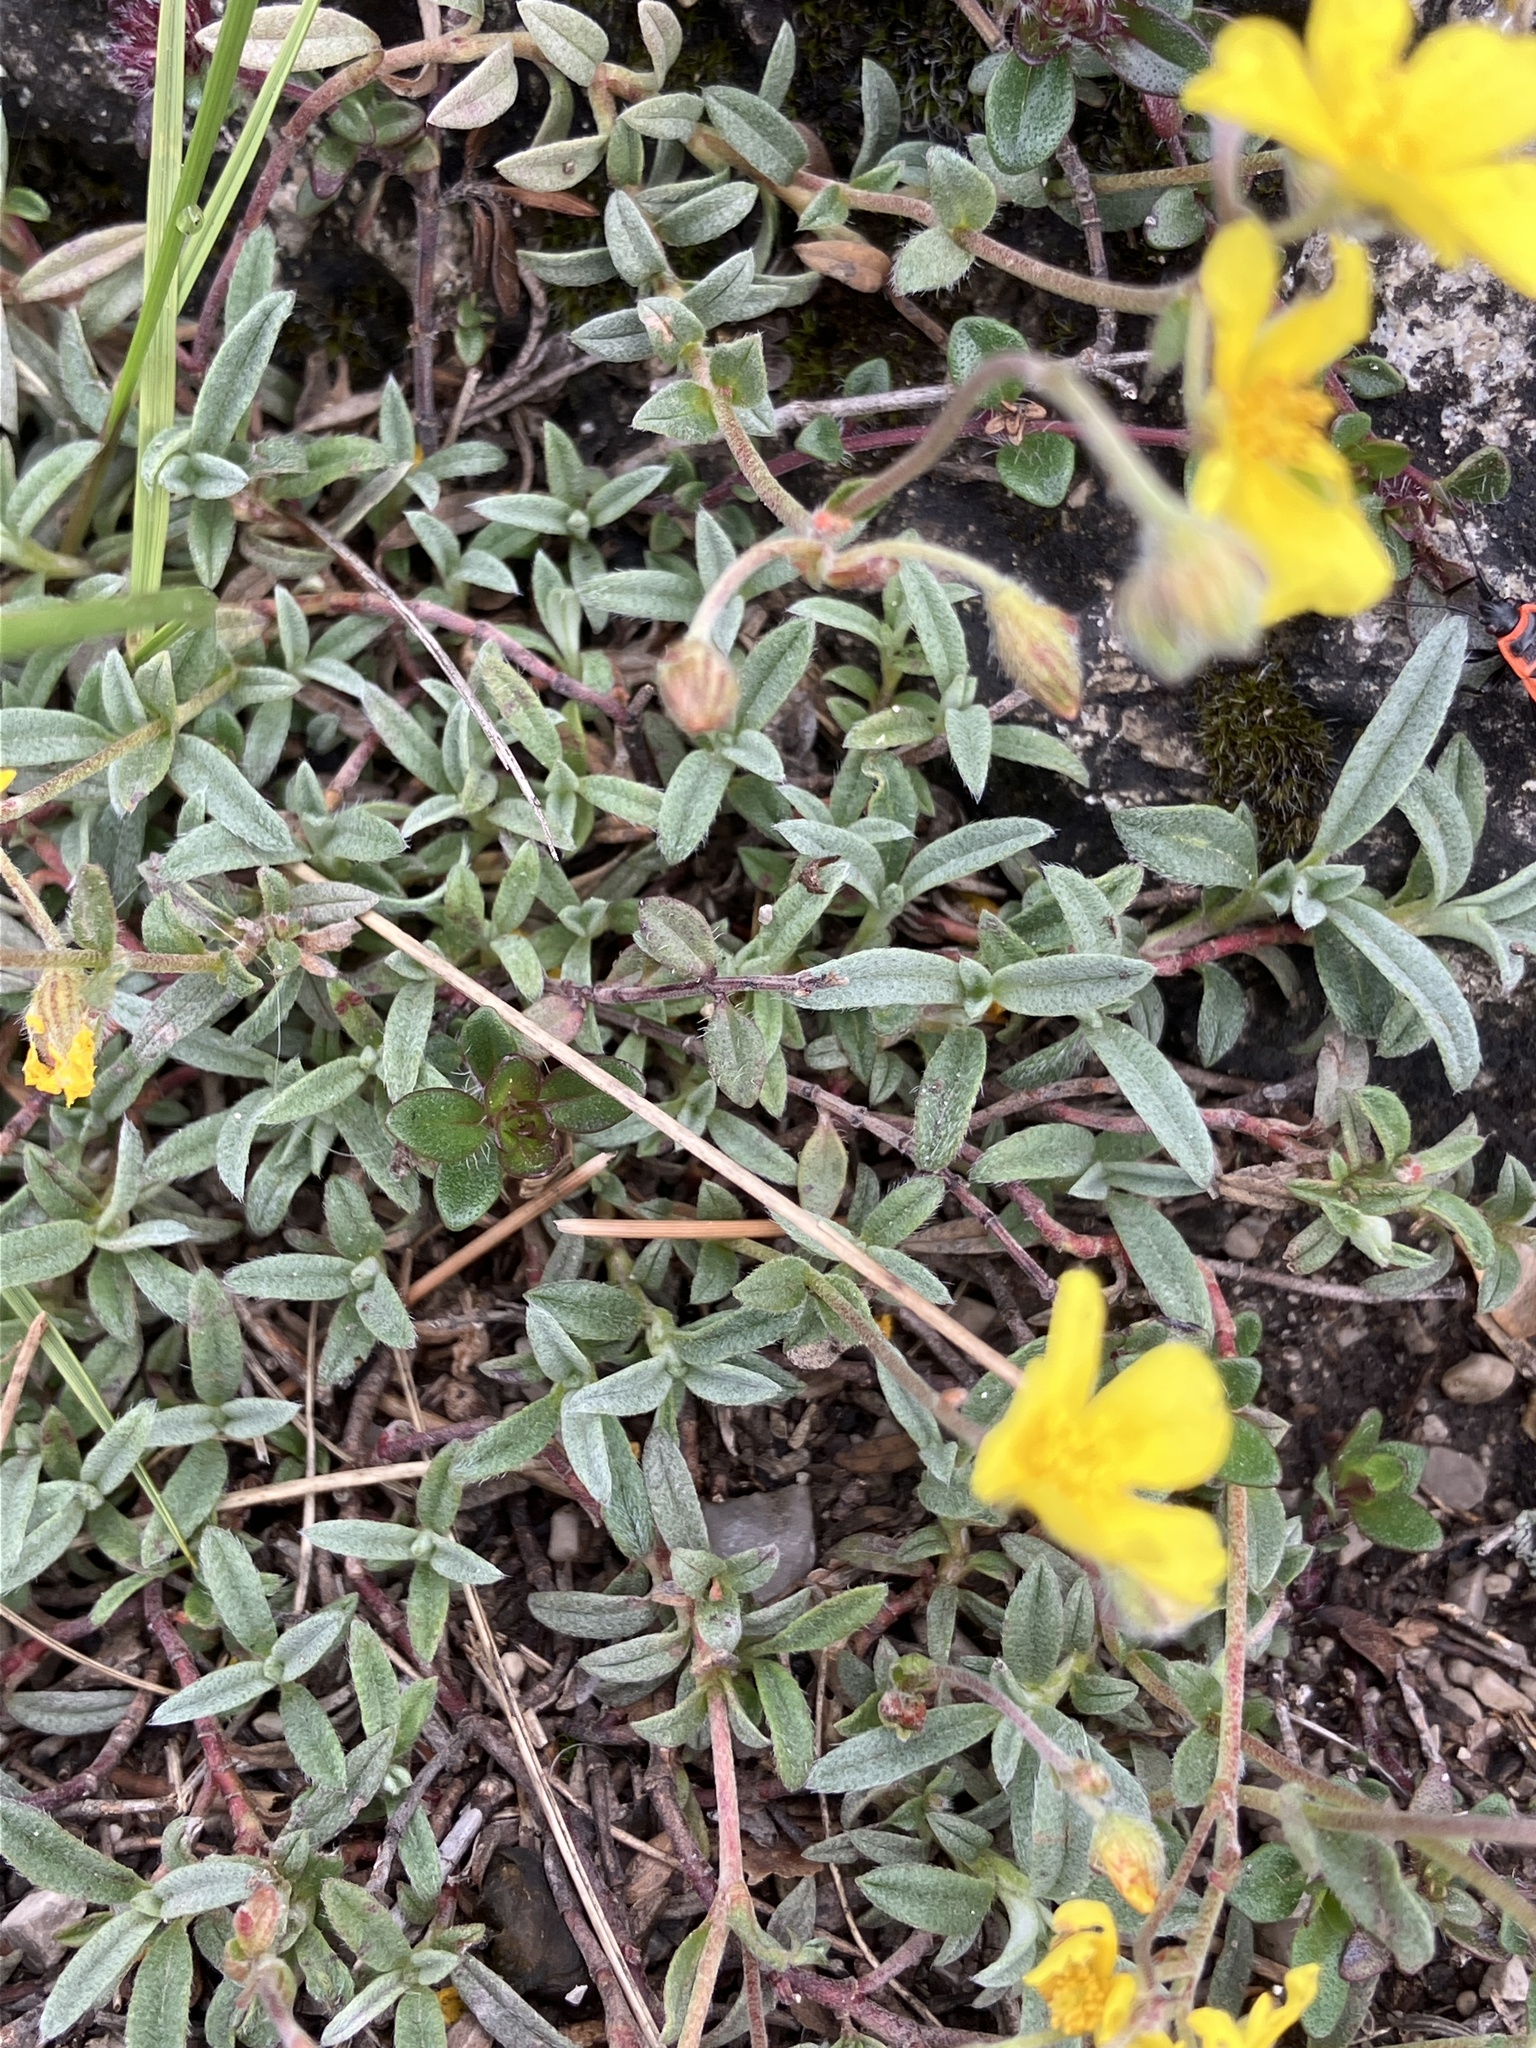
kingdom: Plantae
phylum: Tracheophyta
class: Magnoliopsida
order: Malvales
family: Cistaceae
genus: Helianthemum
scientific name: Helianthemum canum
